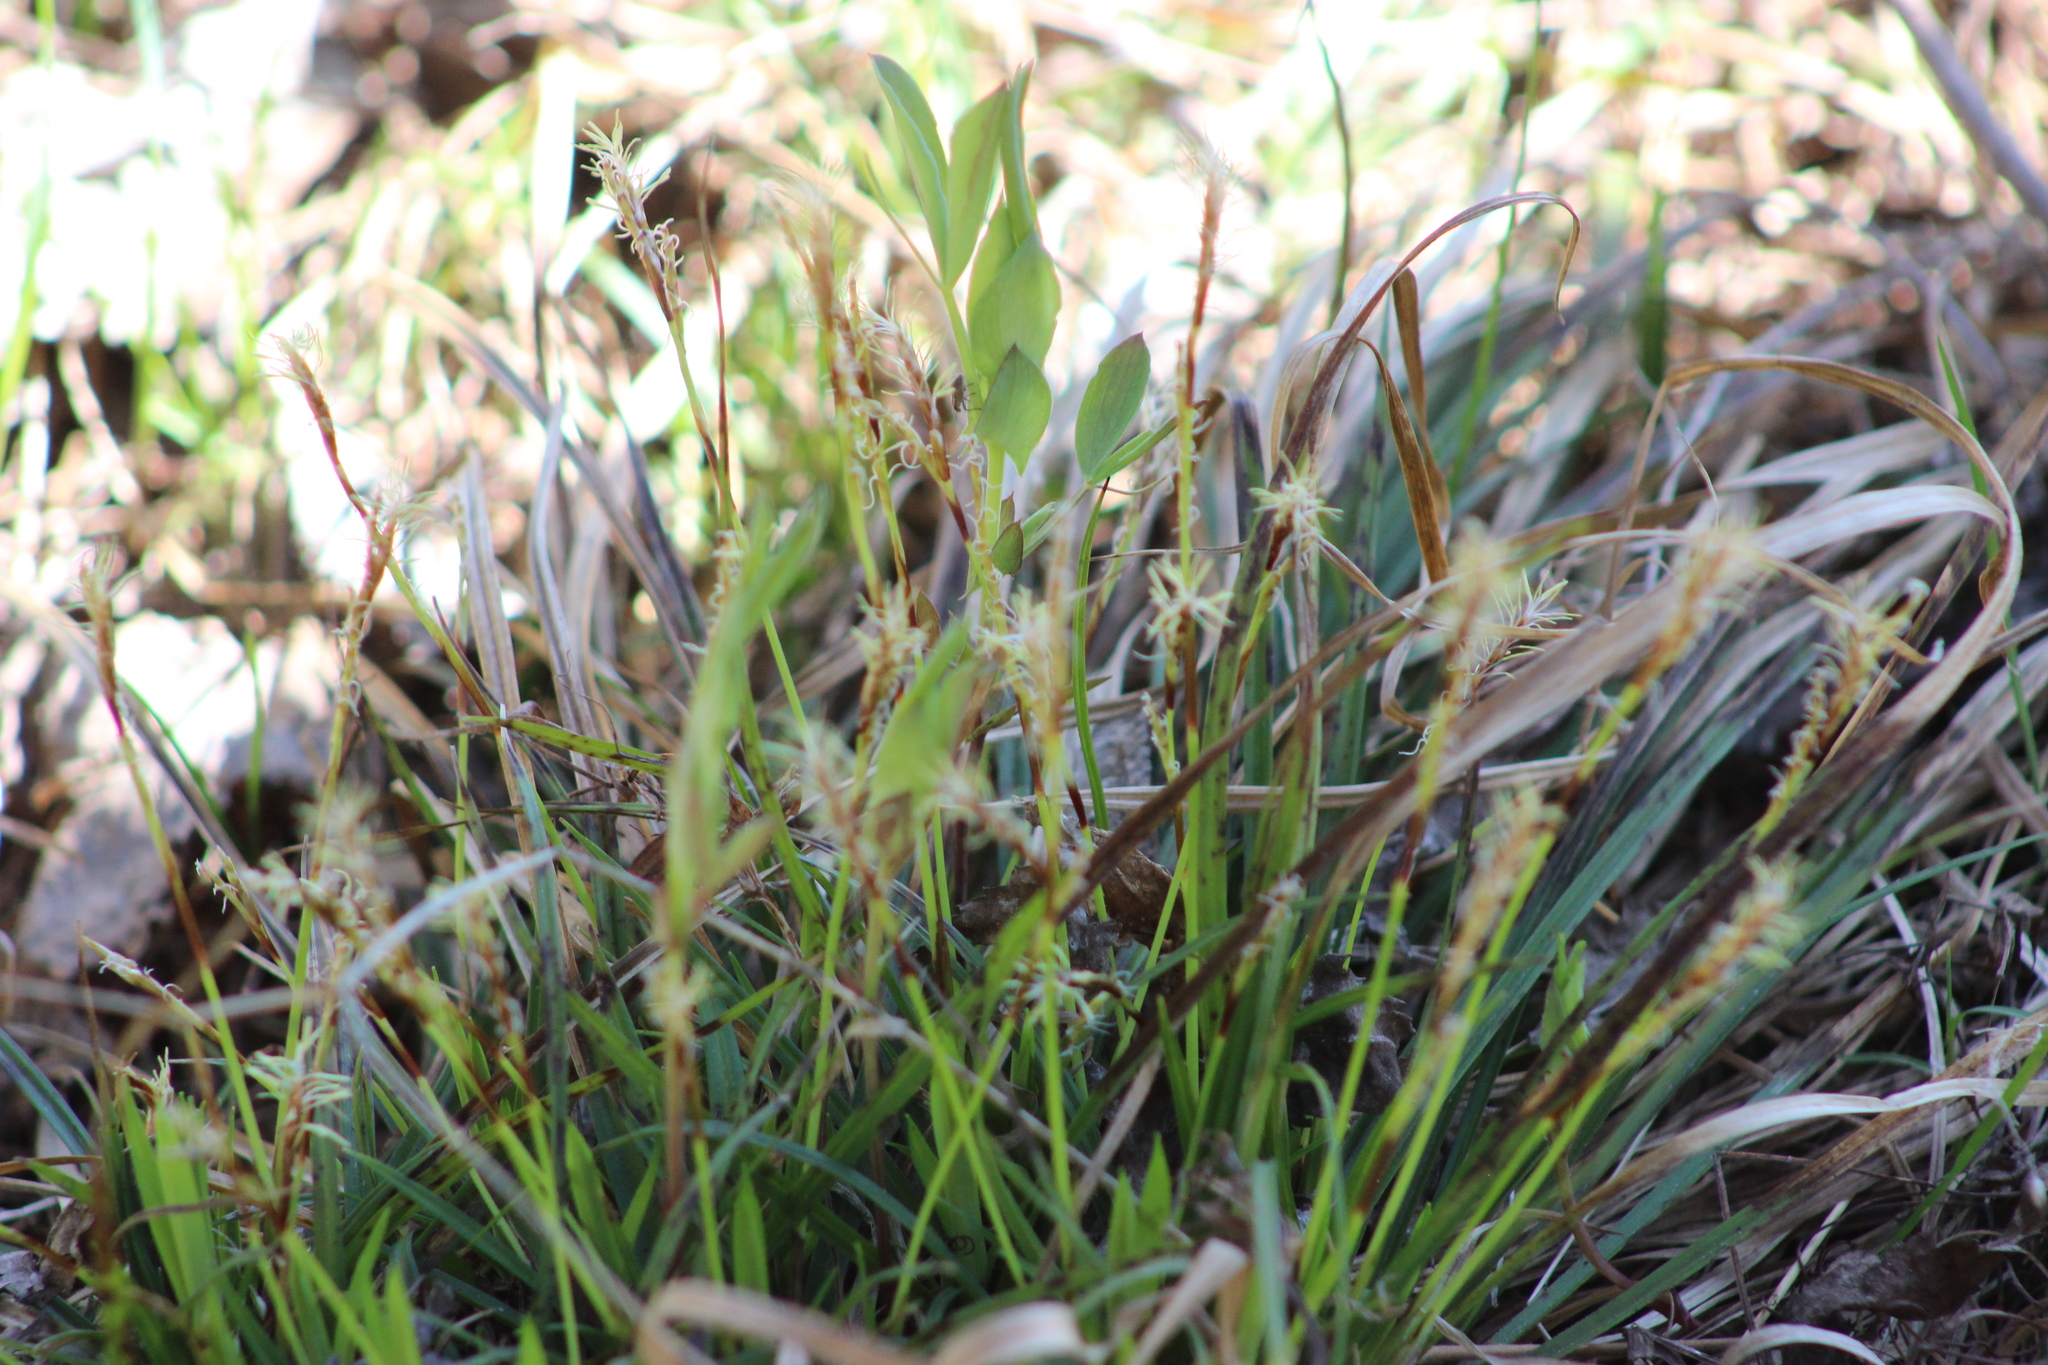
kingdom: Plantae
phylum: Tracheophyta
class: Liliopsida
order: Poales
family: Cyperaceae
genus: Carex
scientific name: Carex digitata
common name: Fingered sedge
